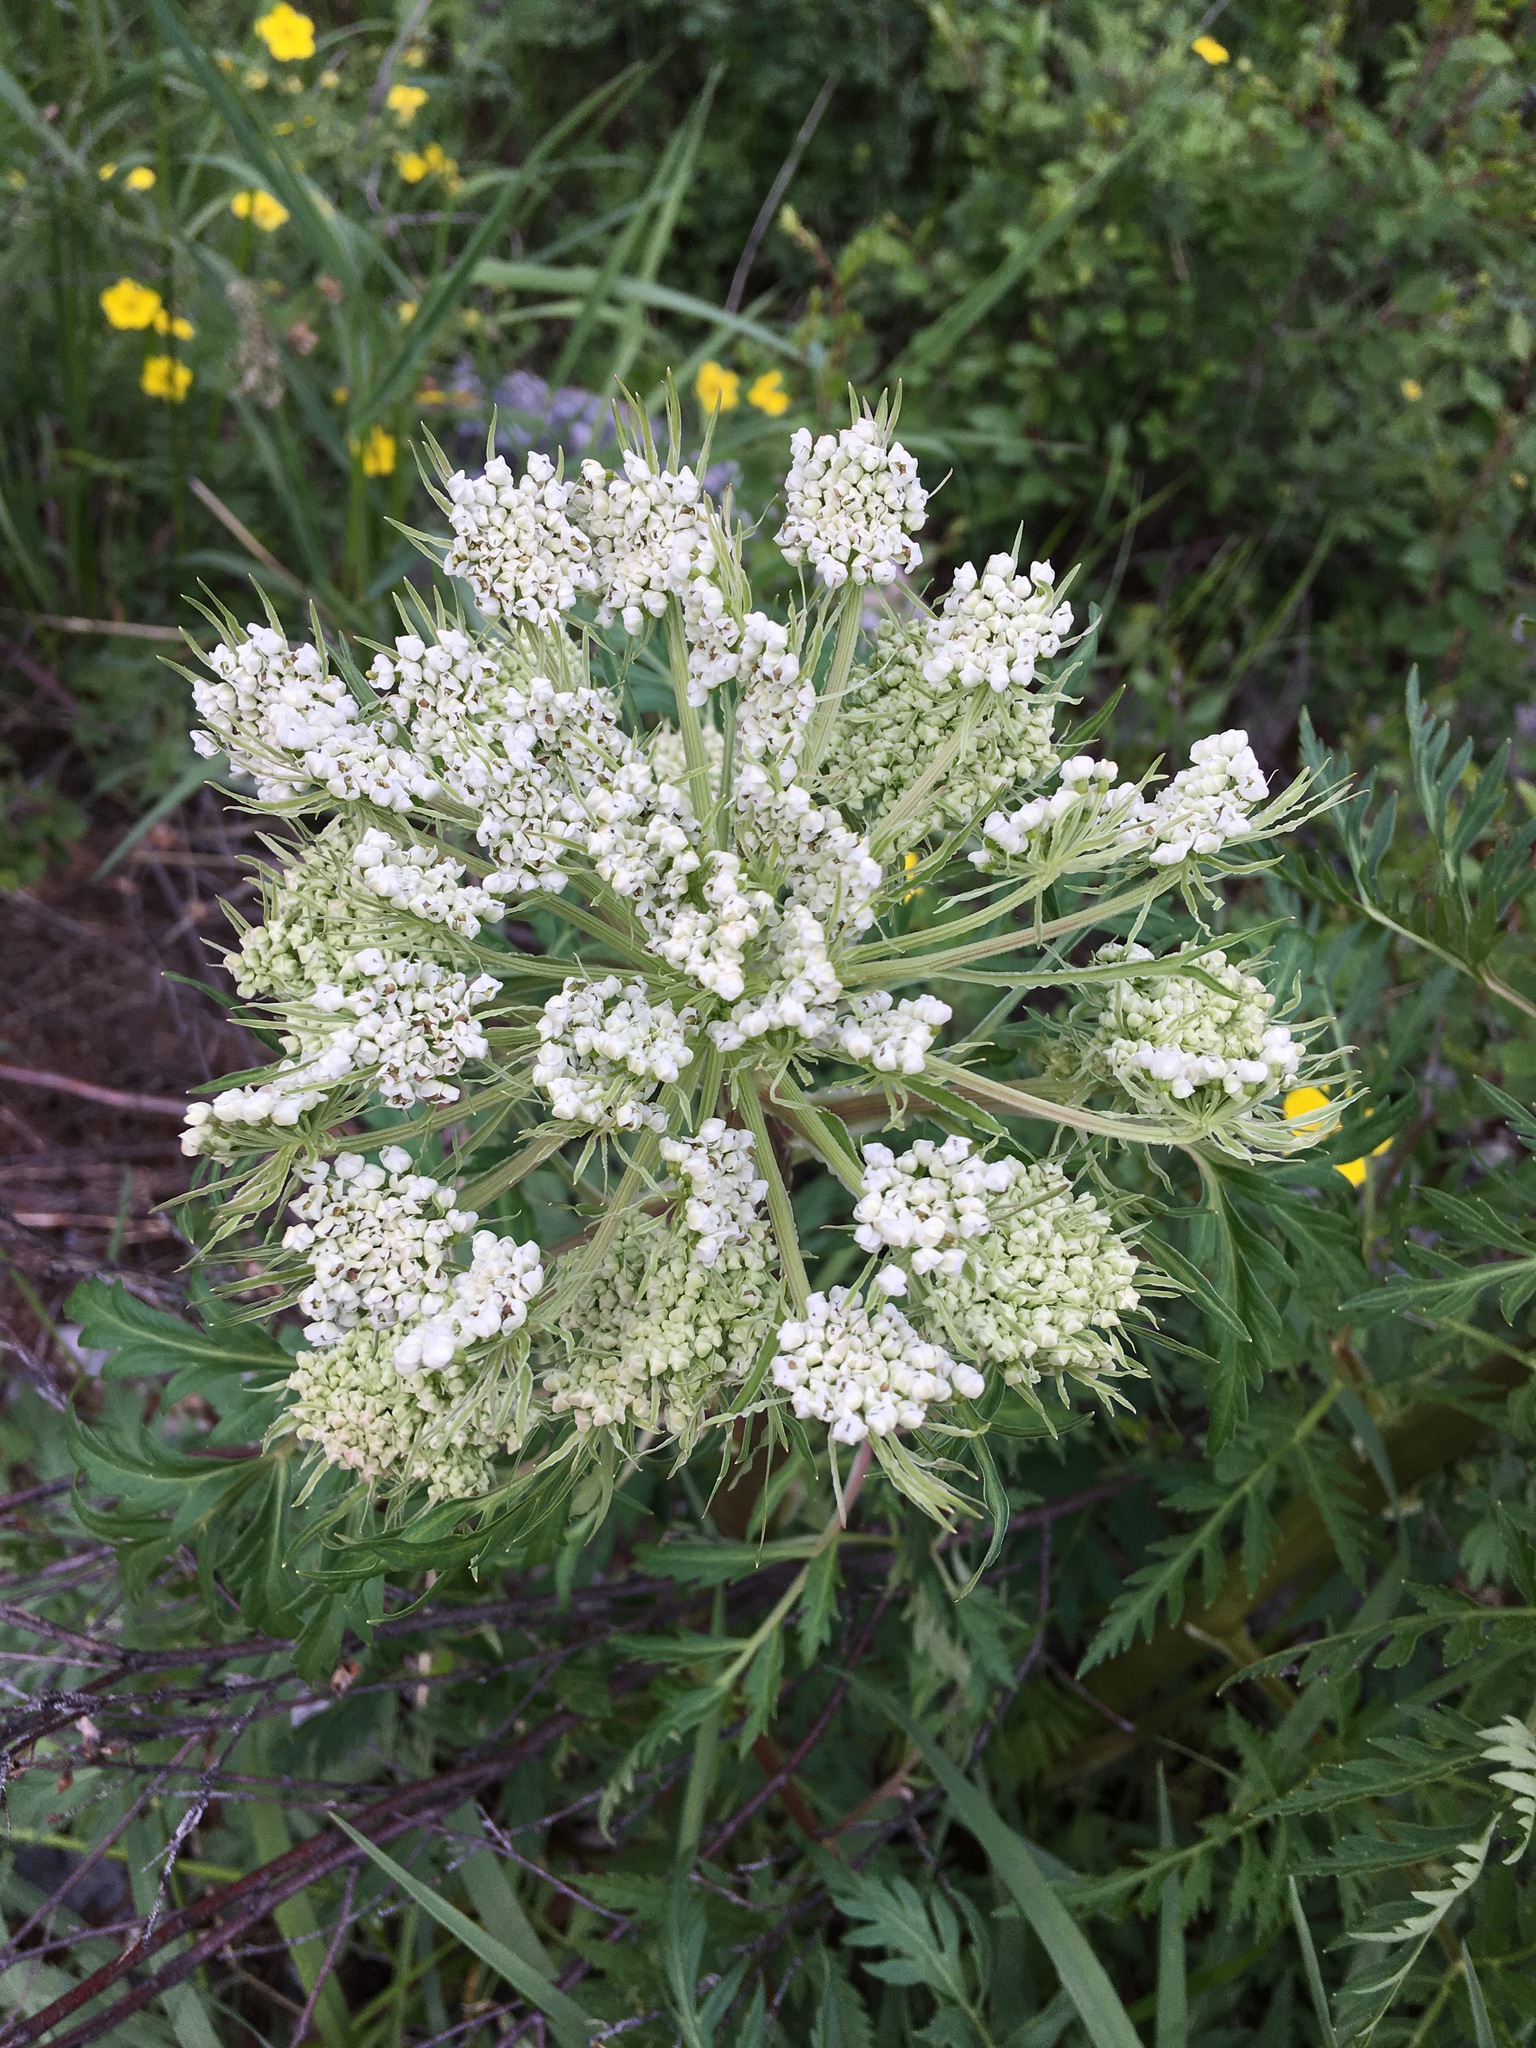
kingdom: Plantae
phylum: Tracheophyta
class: Magnoliopsida
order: Apiales
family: Apiaceae
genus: Pleurospermum
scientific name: Pleurospermum uralense
